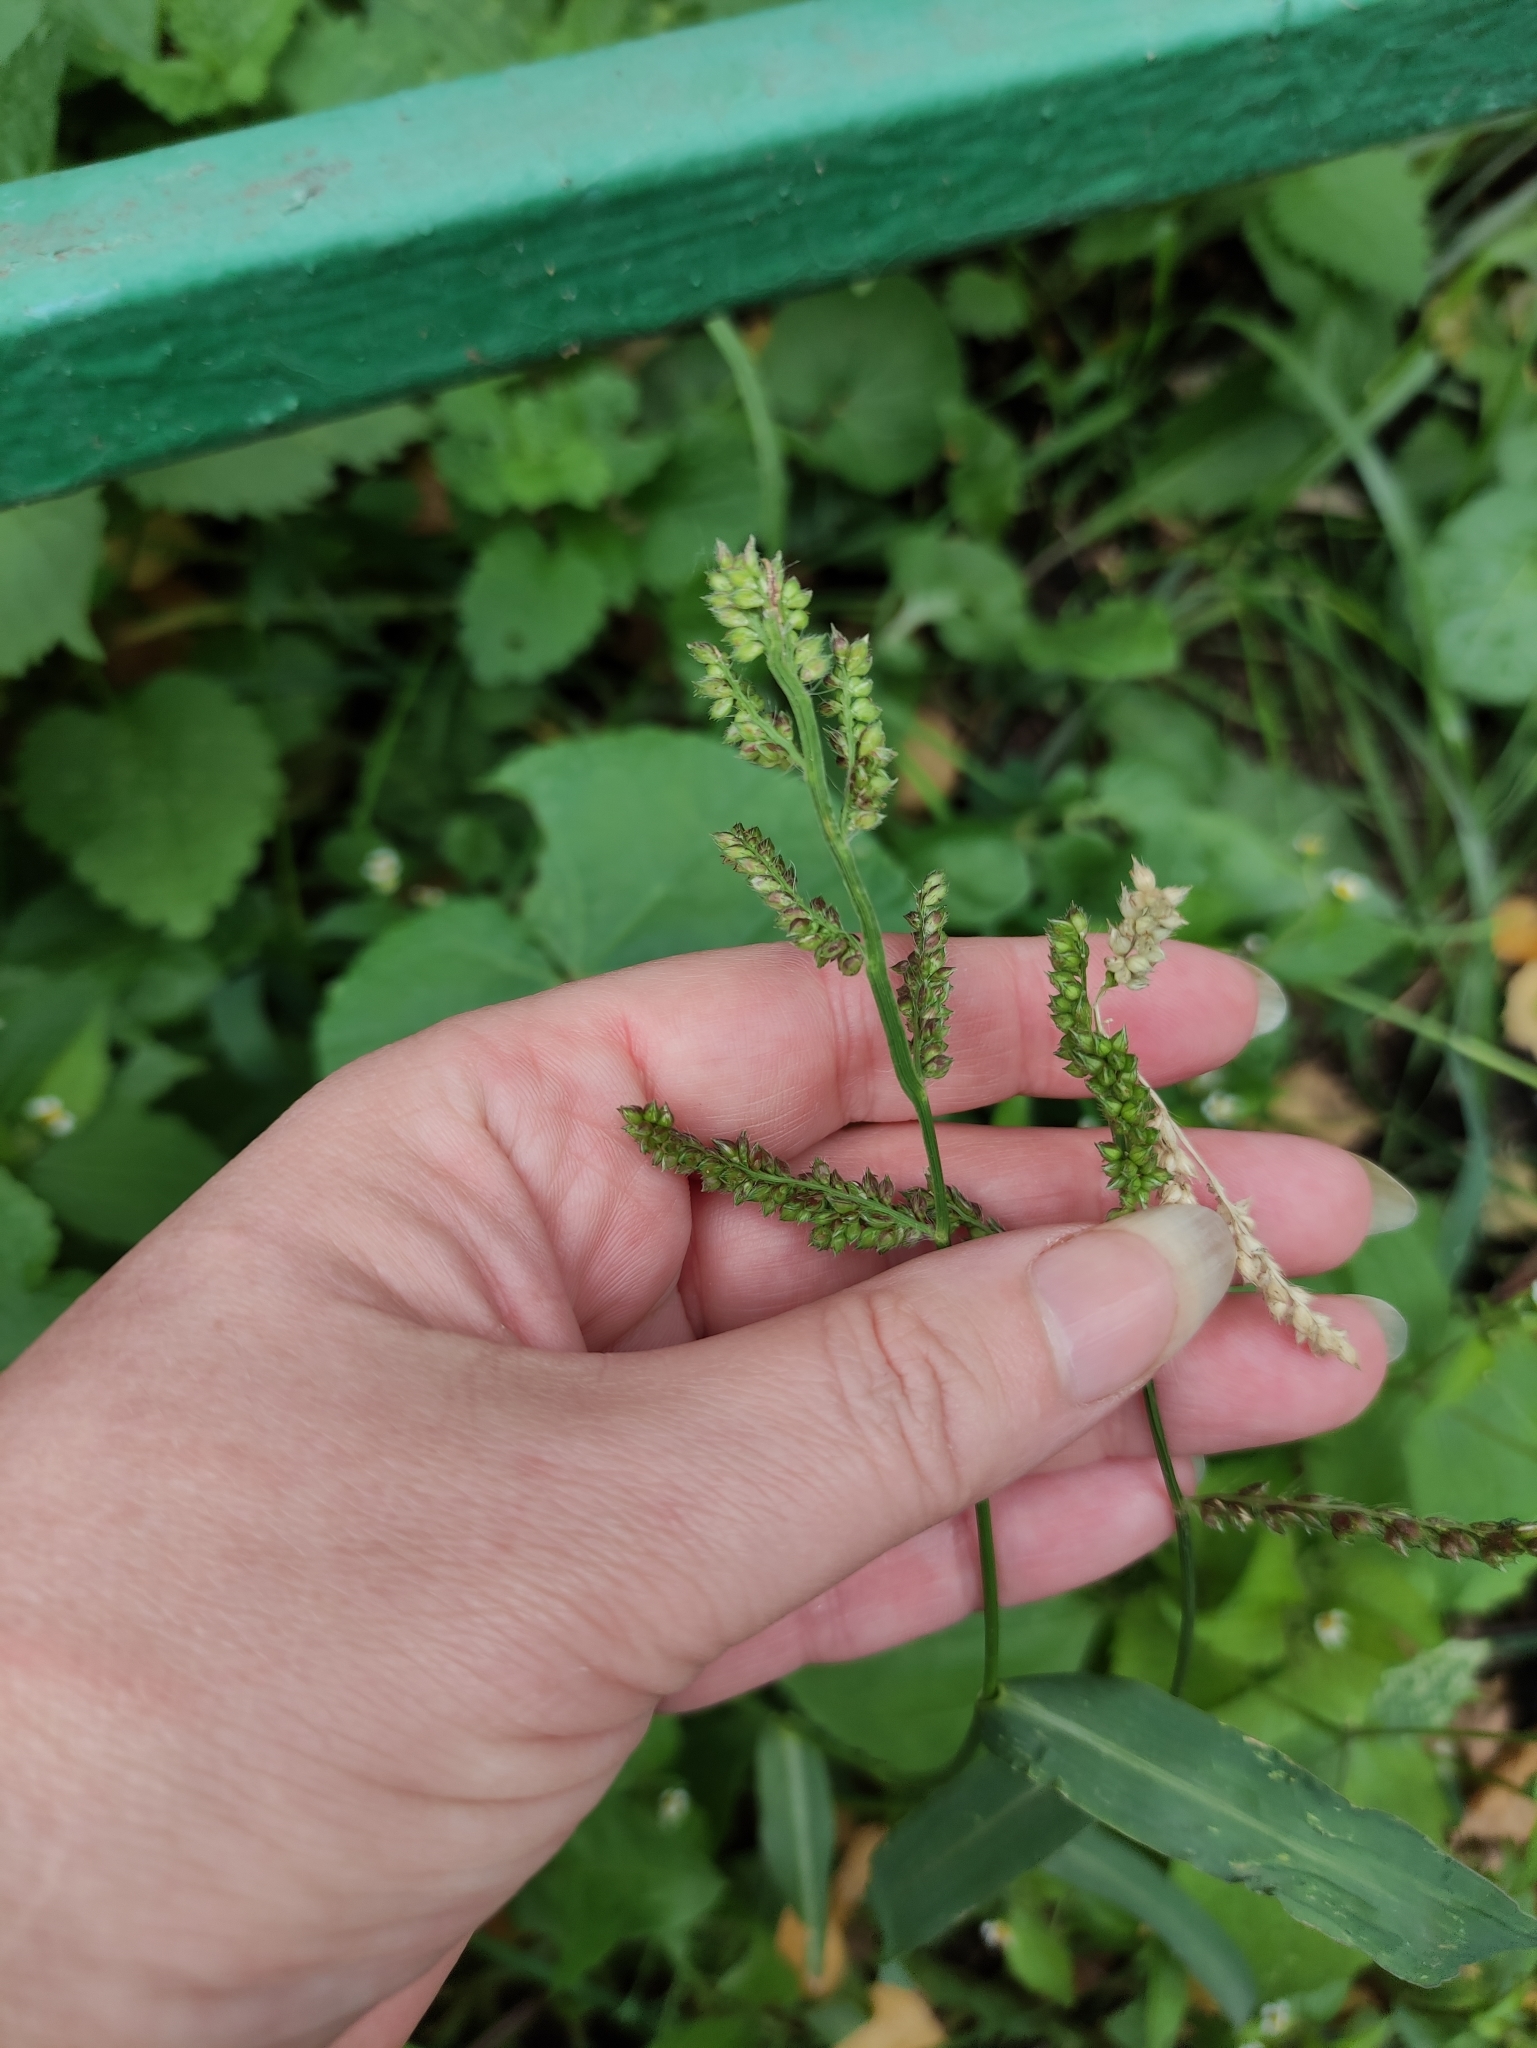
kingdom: Plantae
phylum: Tracheophyta
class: Liliopsida
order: Poales
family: Poaceae
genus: Echinochloa
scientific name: Echinochloa crus-galli
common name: Cockspur
